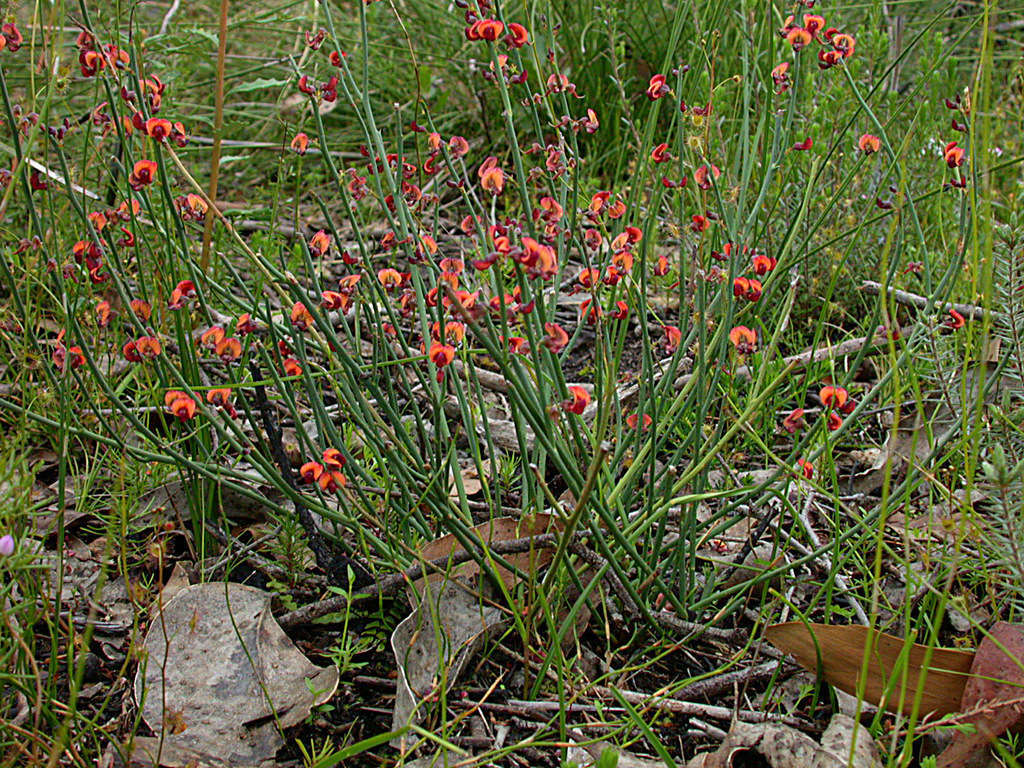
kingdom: Plantae
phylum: Tracheophyta
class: Magnoliopsida
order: Fabales
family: Fabaceae
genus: Daviesia
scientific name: Daviesia brevifolia
